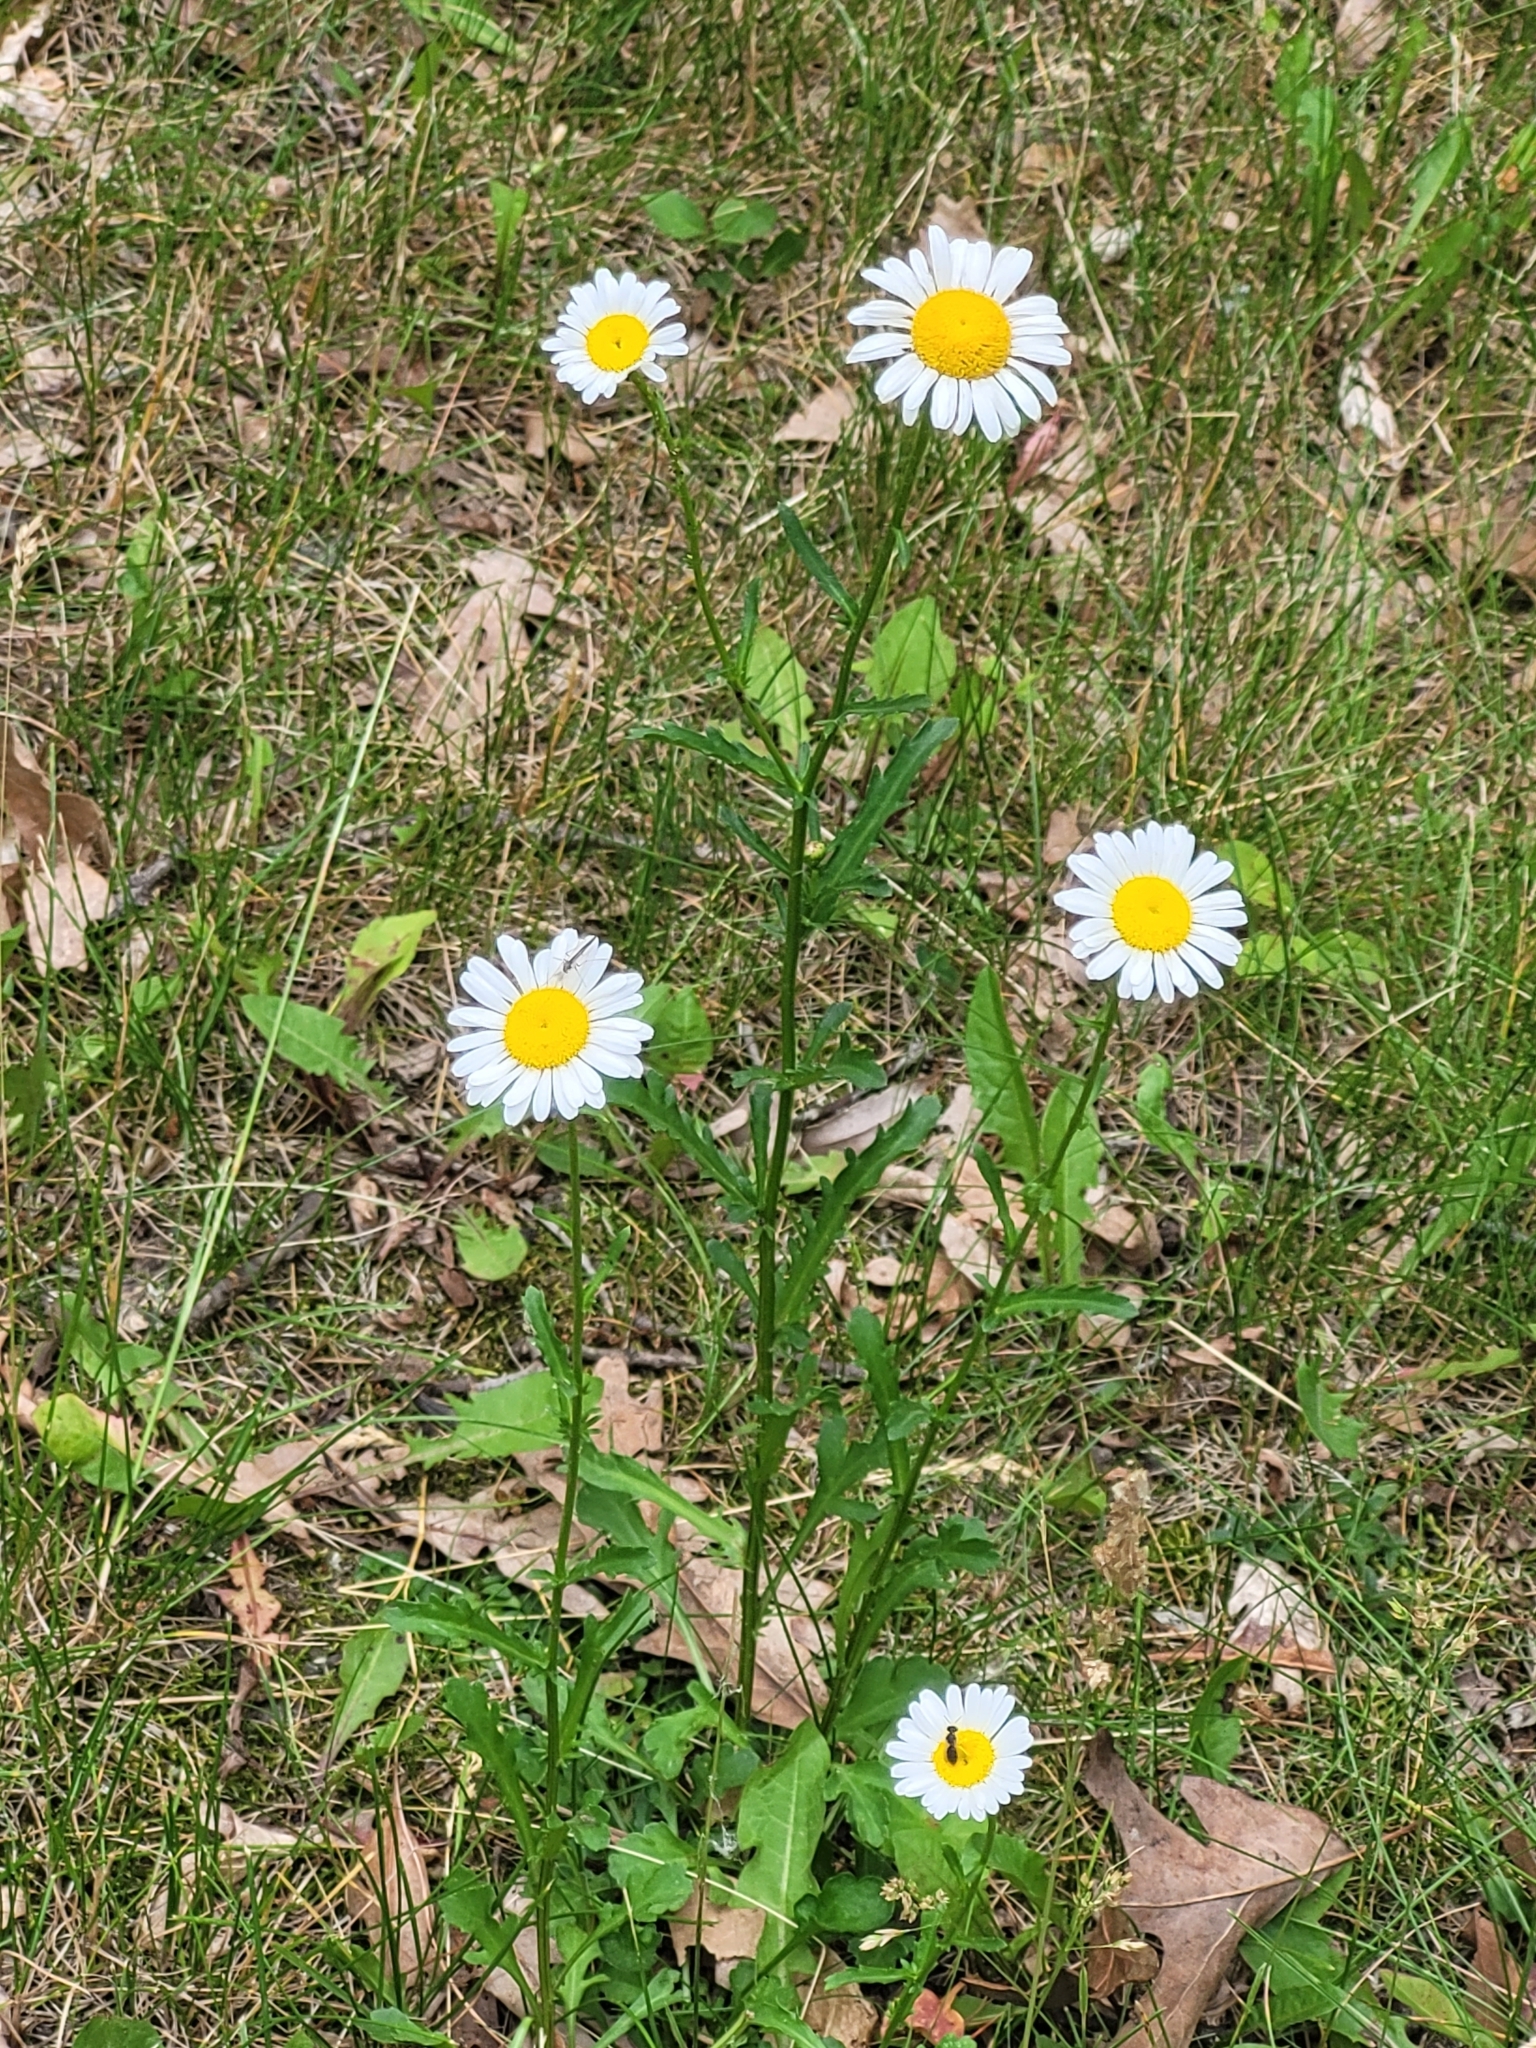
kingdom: Plantae
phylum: Tracheophyta
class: Magnoliopsida
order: Asterales
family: Asteraceae
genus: Leucanthemum
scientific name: Leucanthemum vulgare
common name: Oxeye daisy
